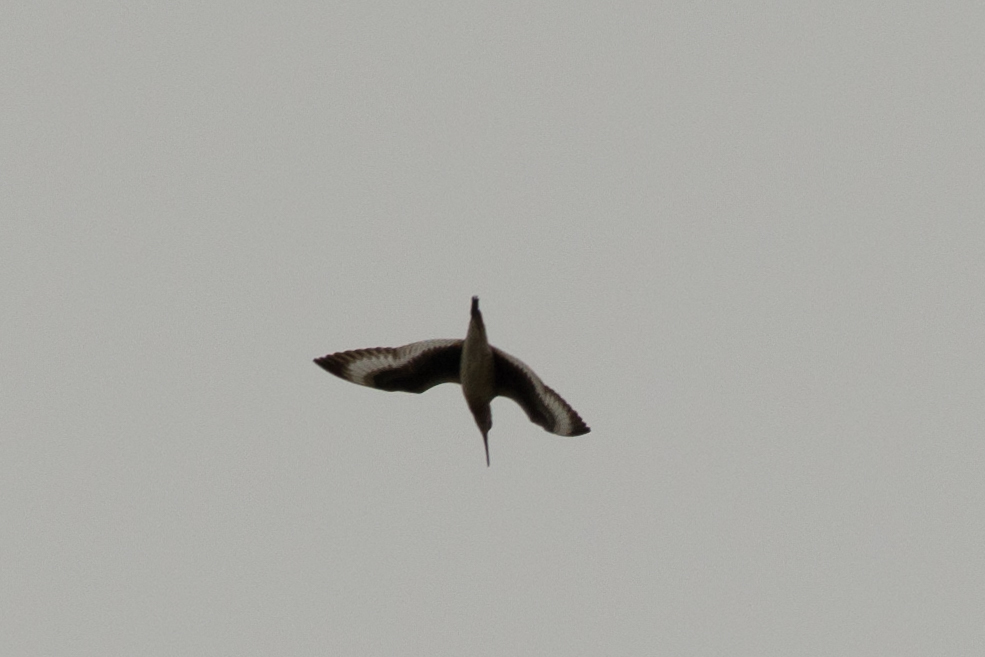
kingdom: Animalia
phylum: Chordata
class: Aves
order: Charadriiformes
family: Scolopacidae
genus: Tringa
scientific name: Tringa semipalmata
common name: Willet
